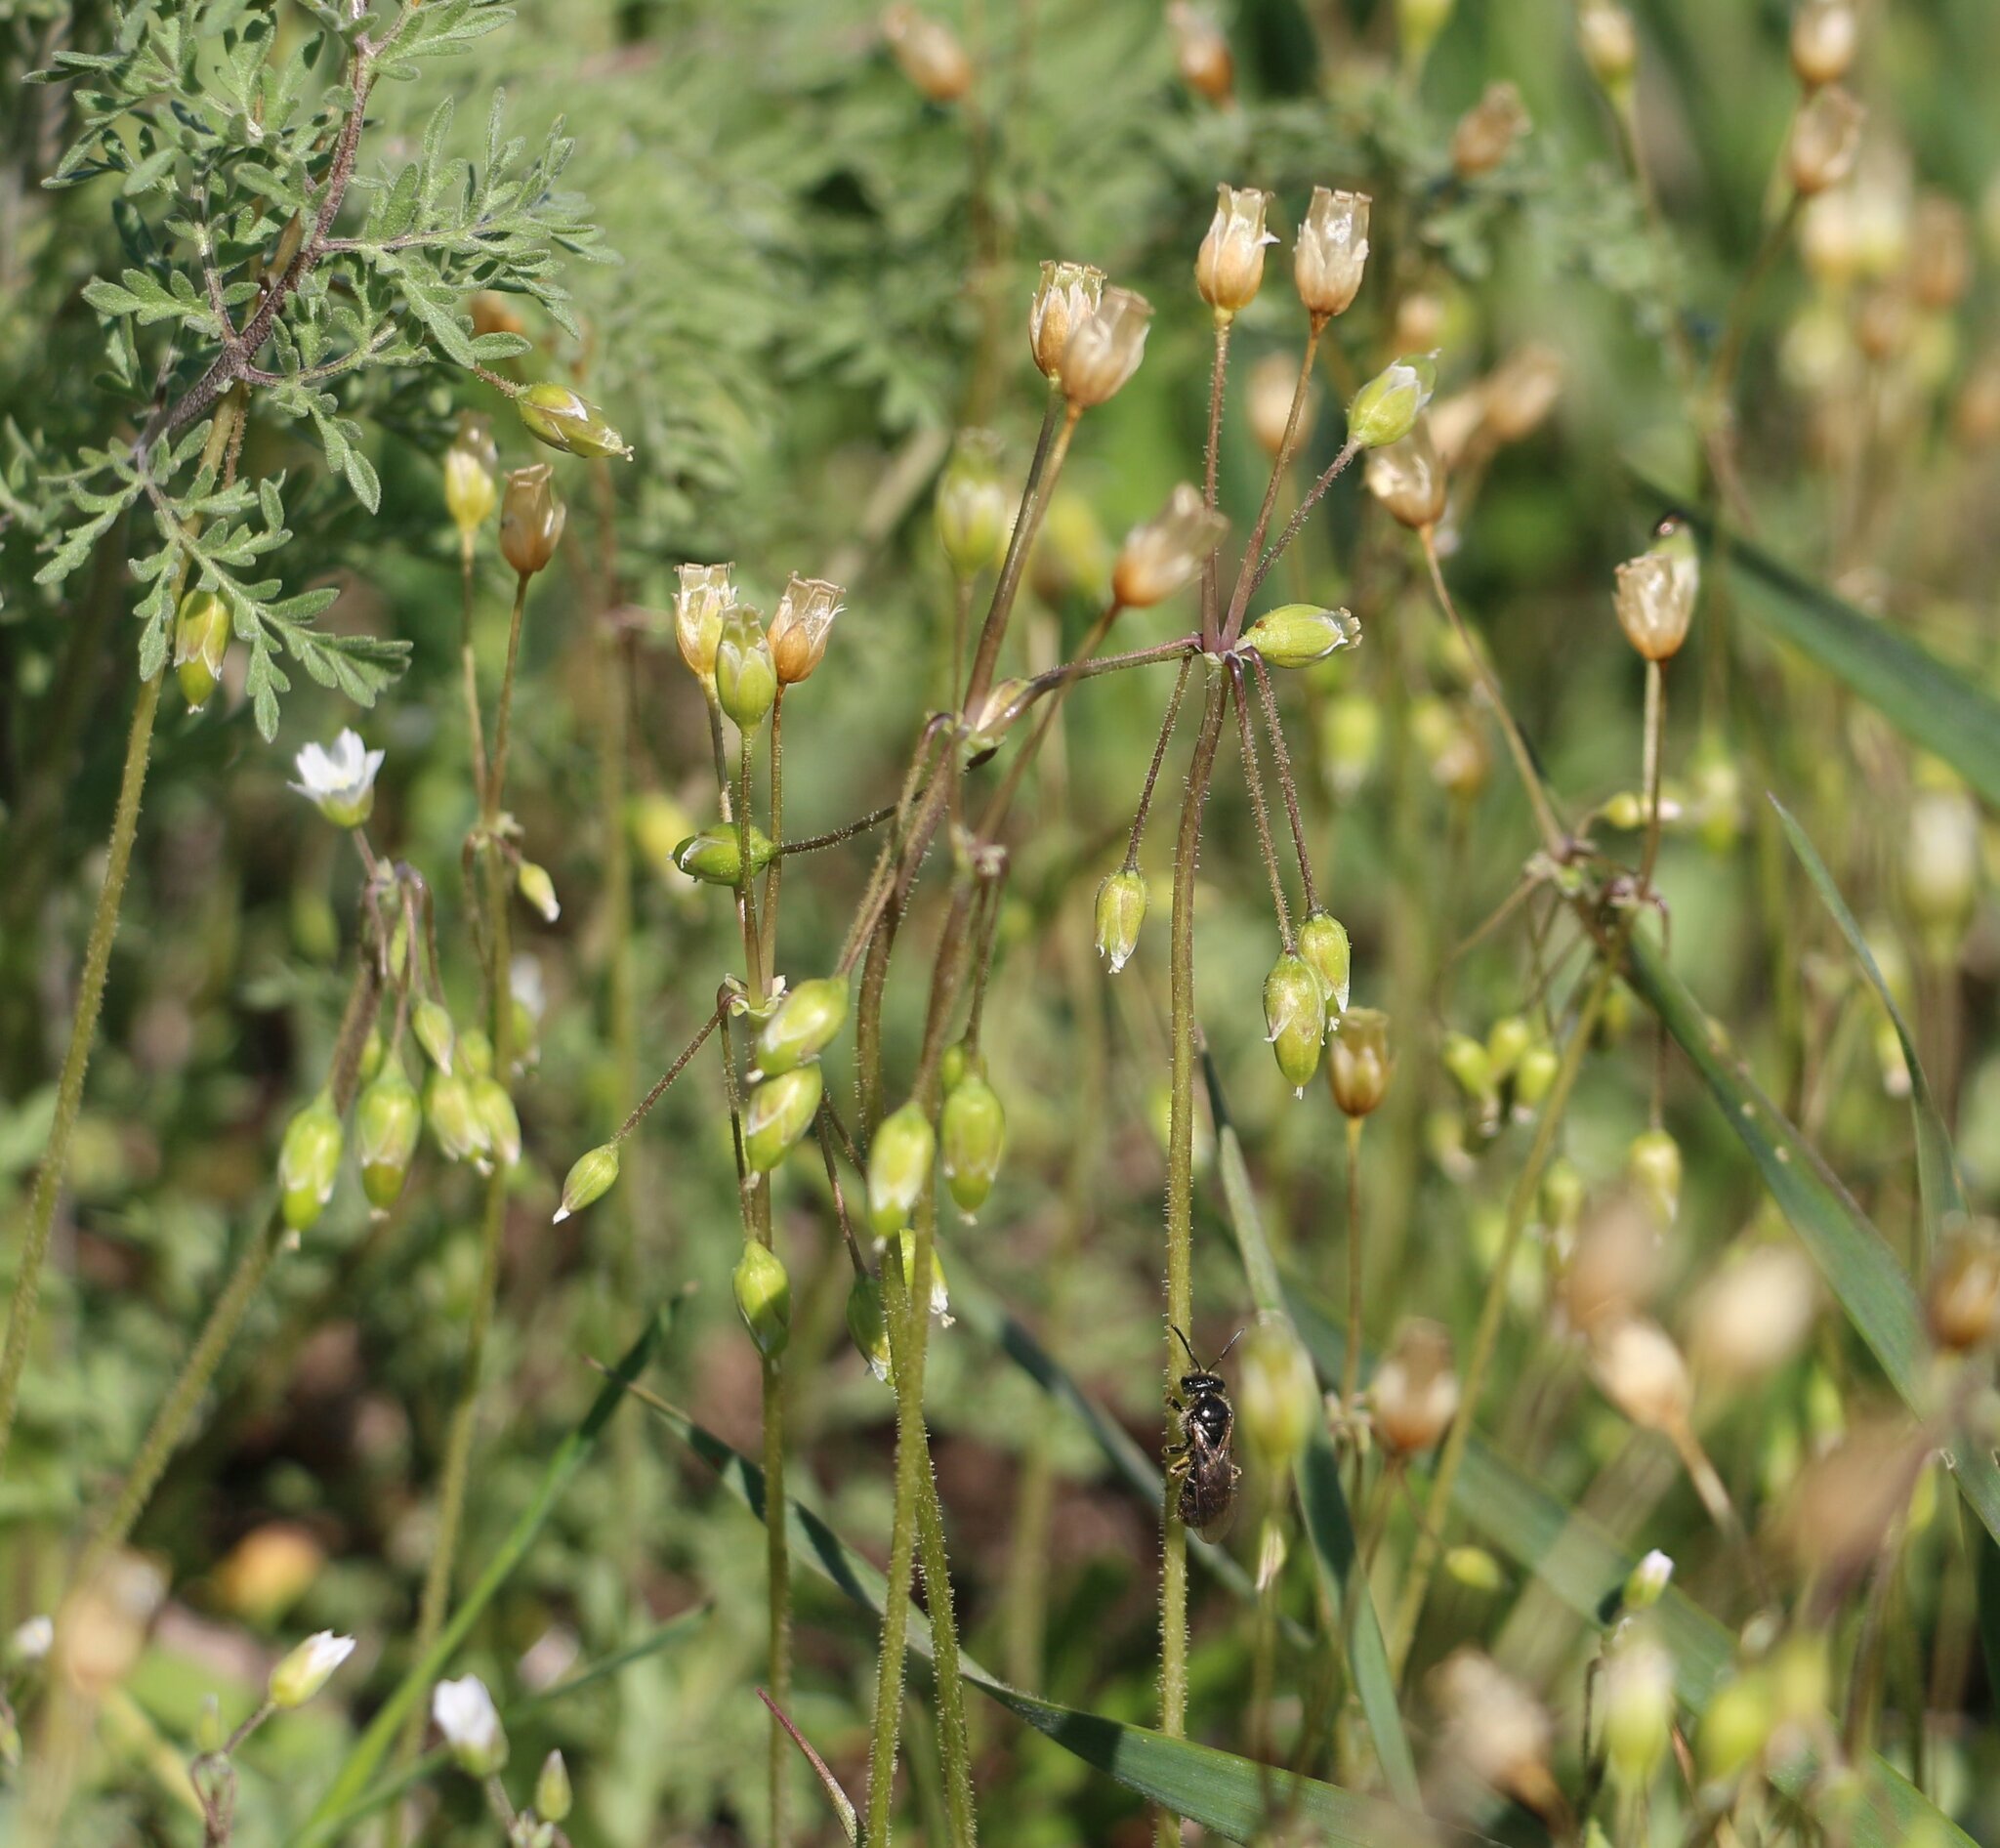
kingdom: Plantae
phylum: Tracheophyta
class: Magnoliopsida
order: Caryophyllales
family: Caryophyllaceae
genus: Holosteum
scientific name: Holosteum umbellatum
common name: Jagged chickweed
